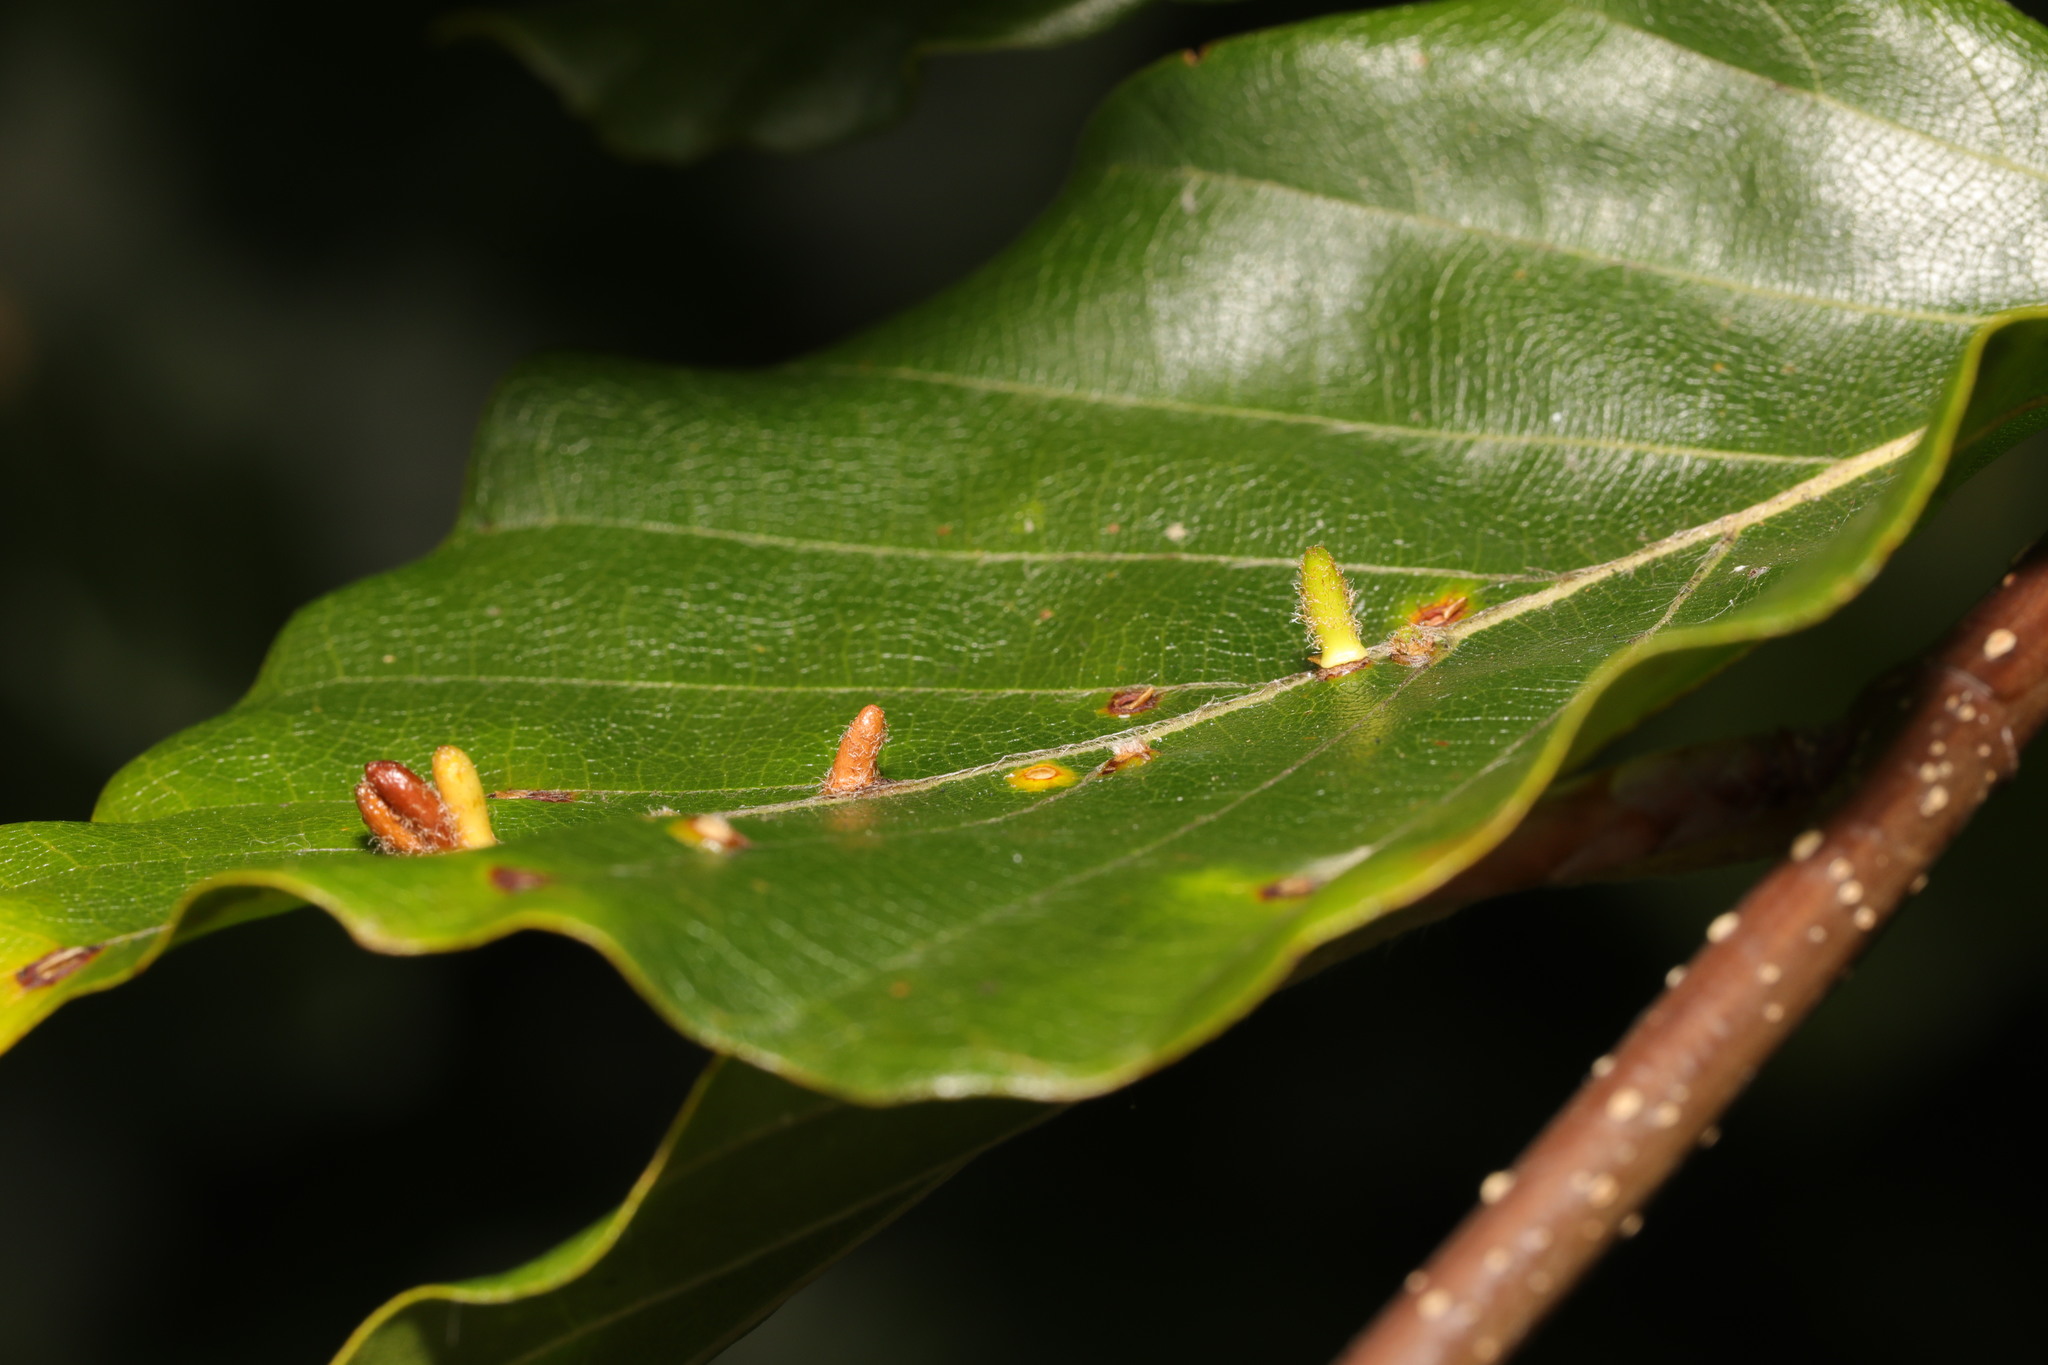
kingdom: Animalia
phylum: Arthropoda
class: Insecta
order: Diptera
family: Cecidomyiidae
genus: Hartigiola
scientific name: Hartigiola annulipes
